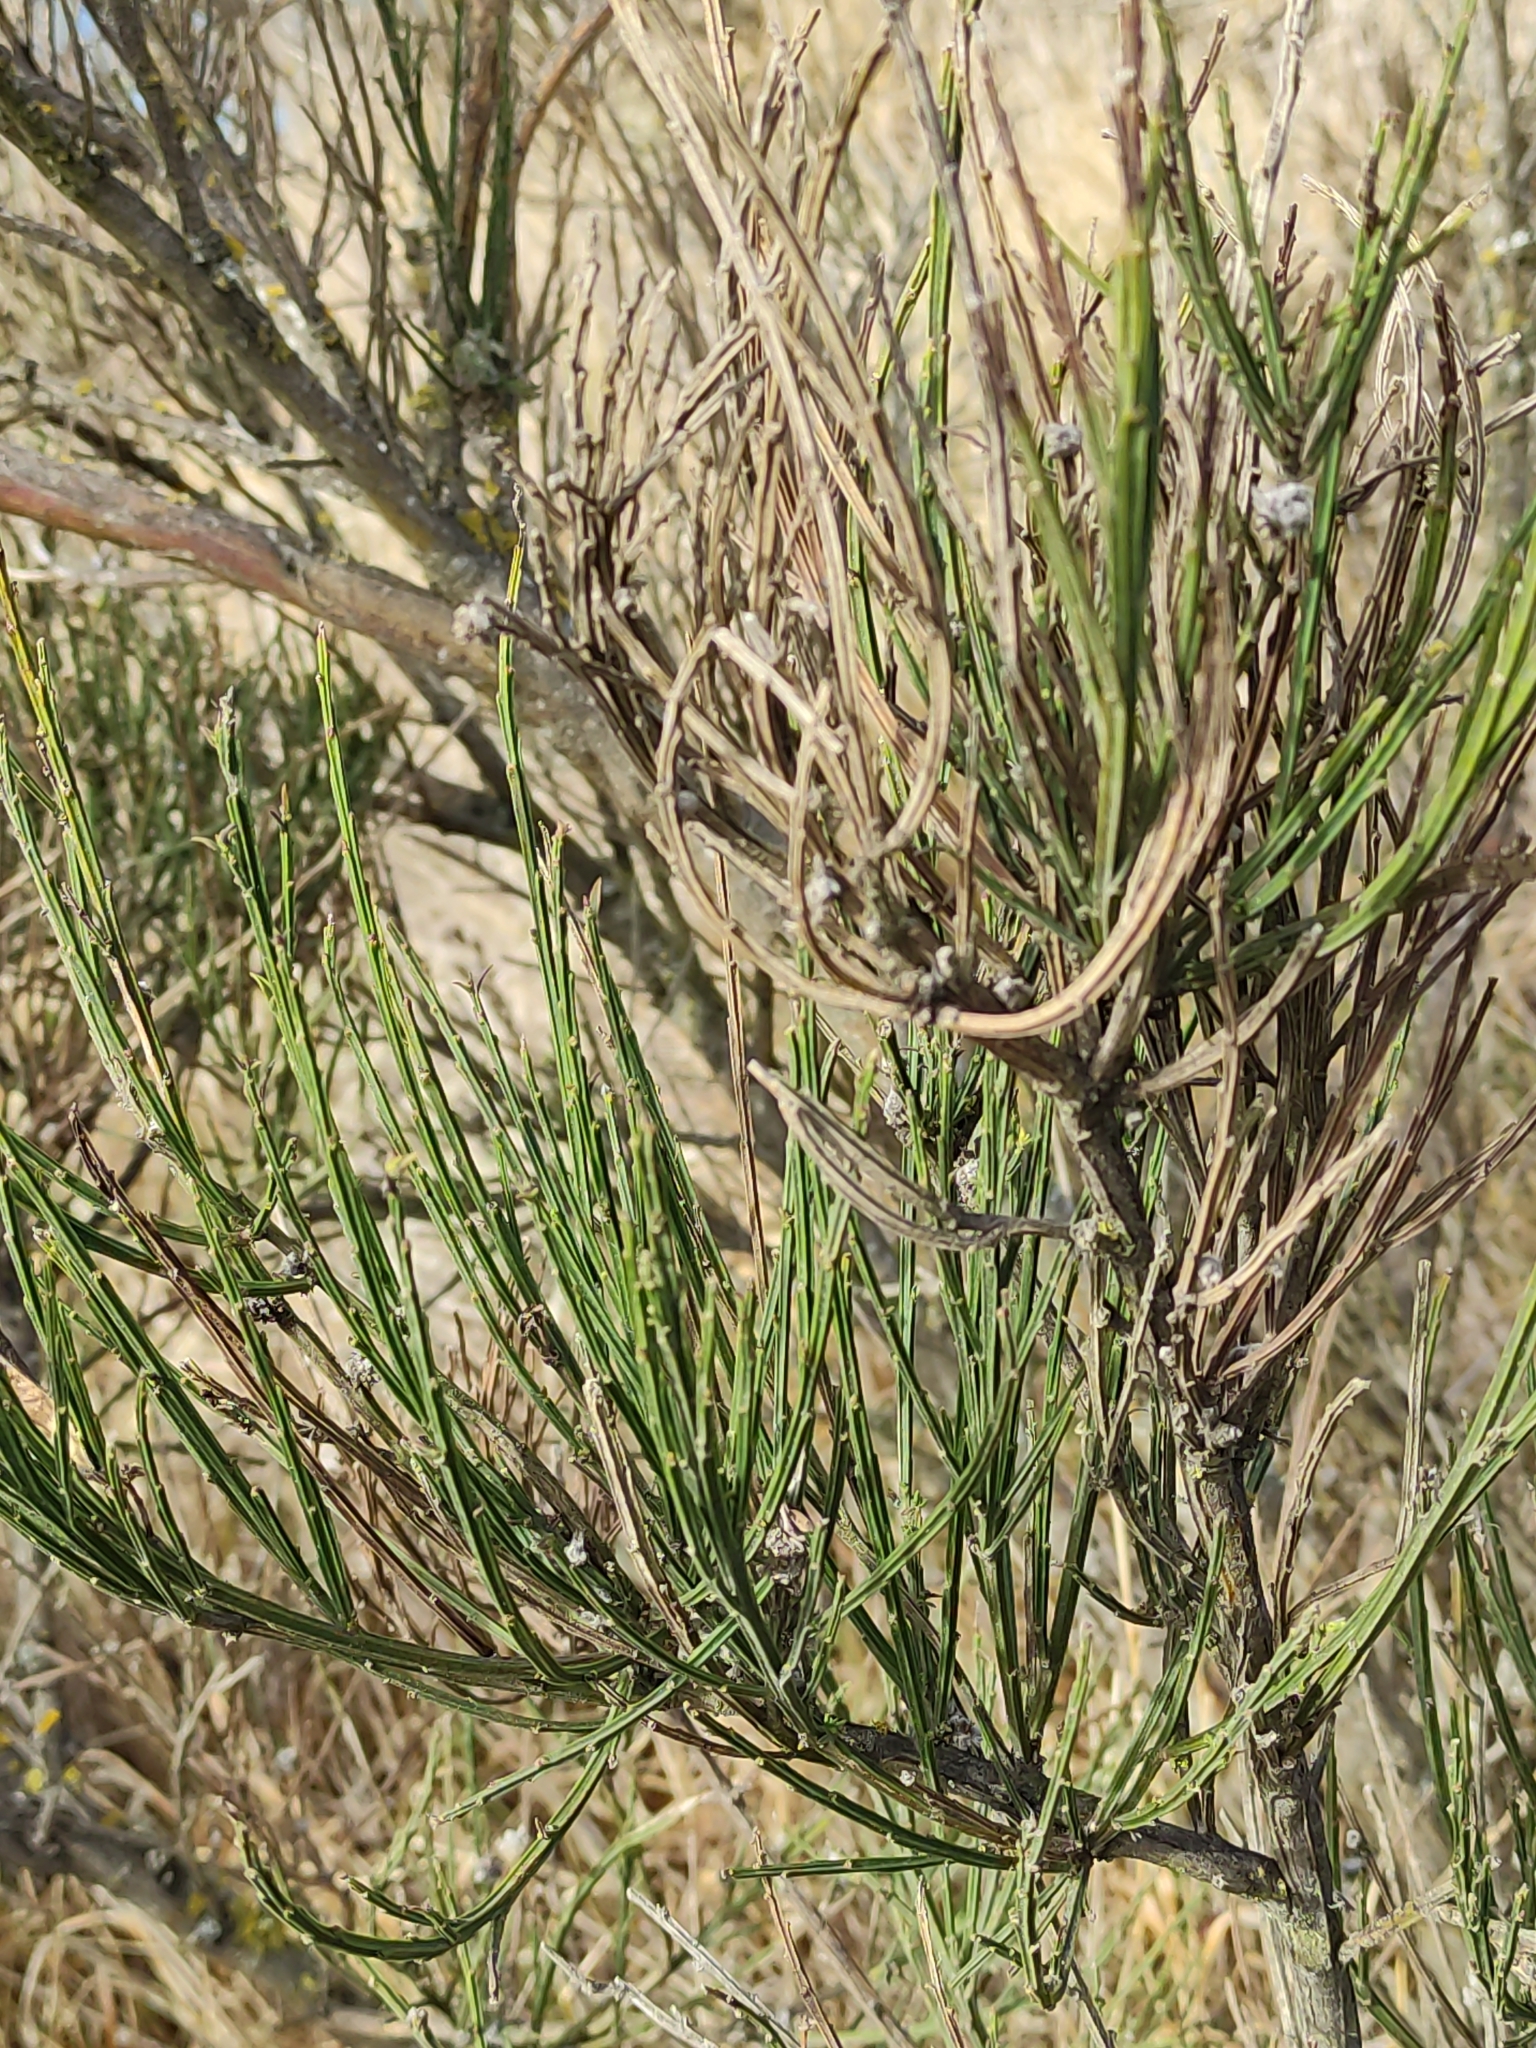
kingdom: Plantae
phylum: Tracheophyta
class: Magnoliopsida
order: Fabales
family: Fabaceae
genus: Cytisus
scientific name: Cytisus scoparius
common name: Scotch broom
